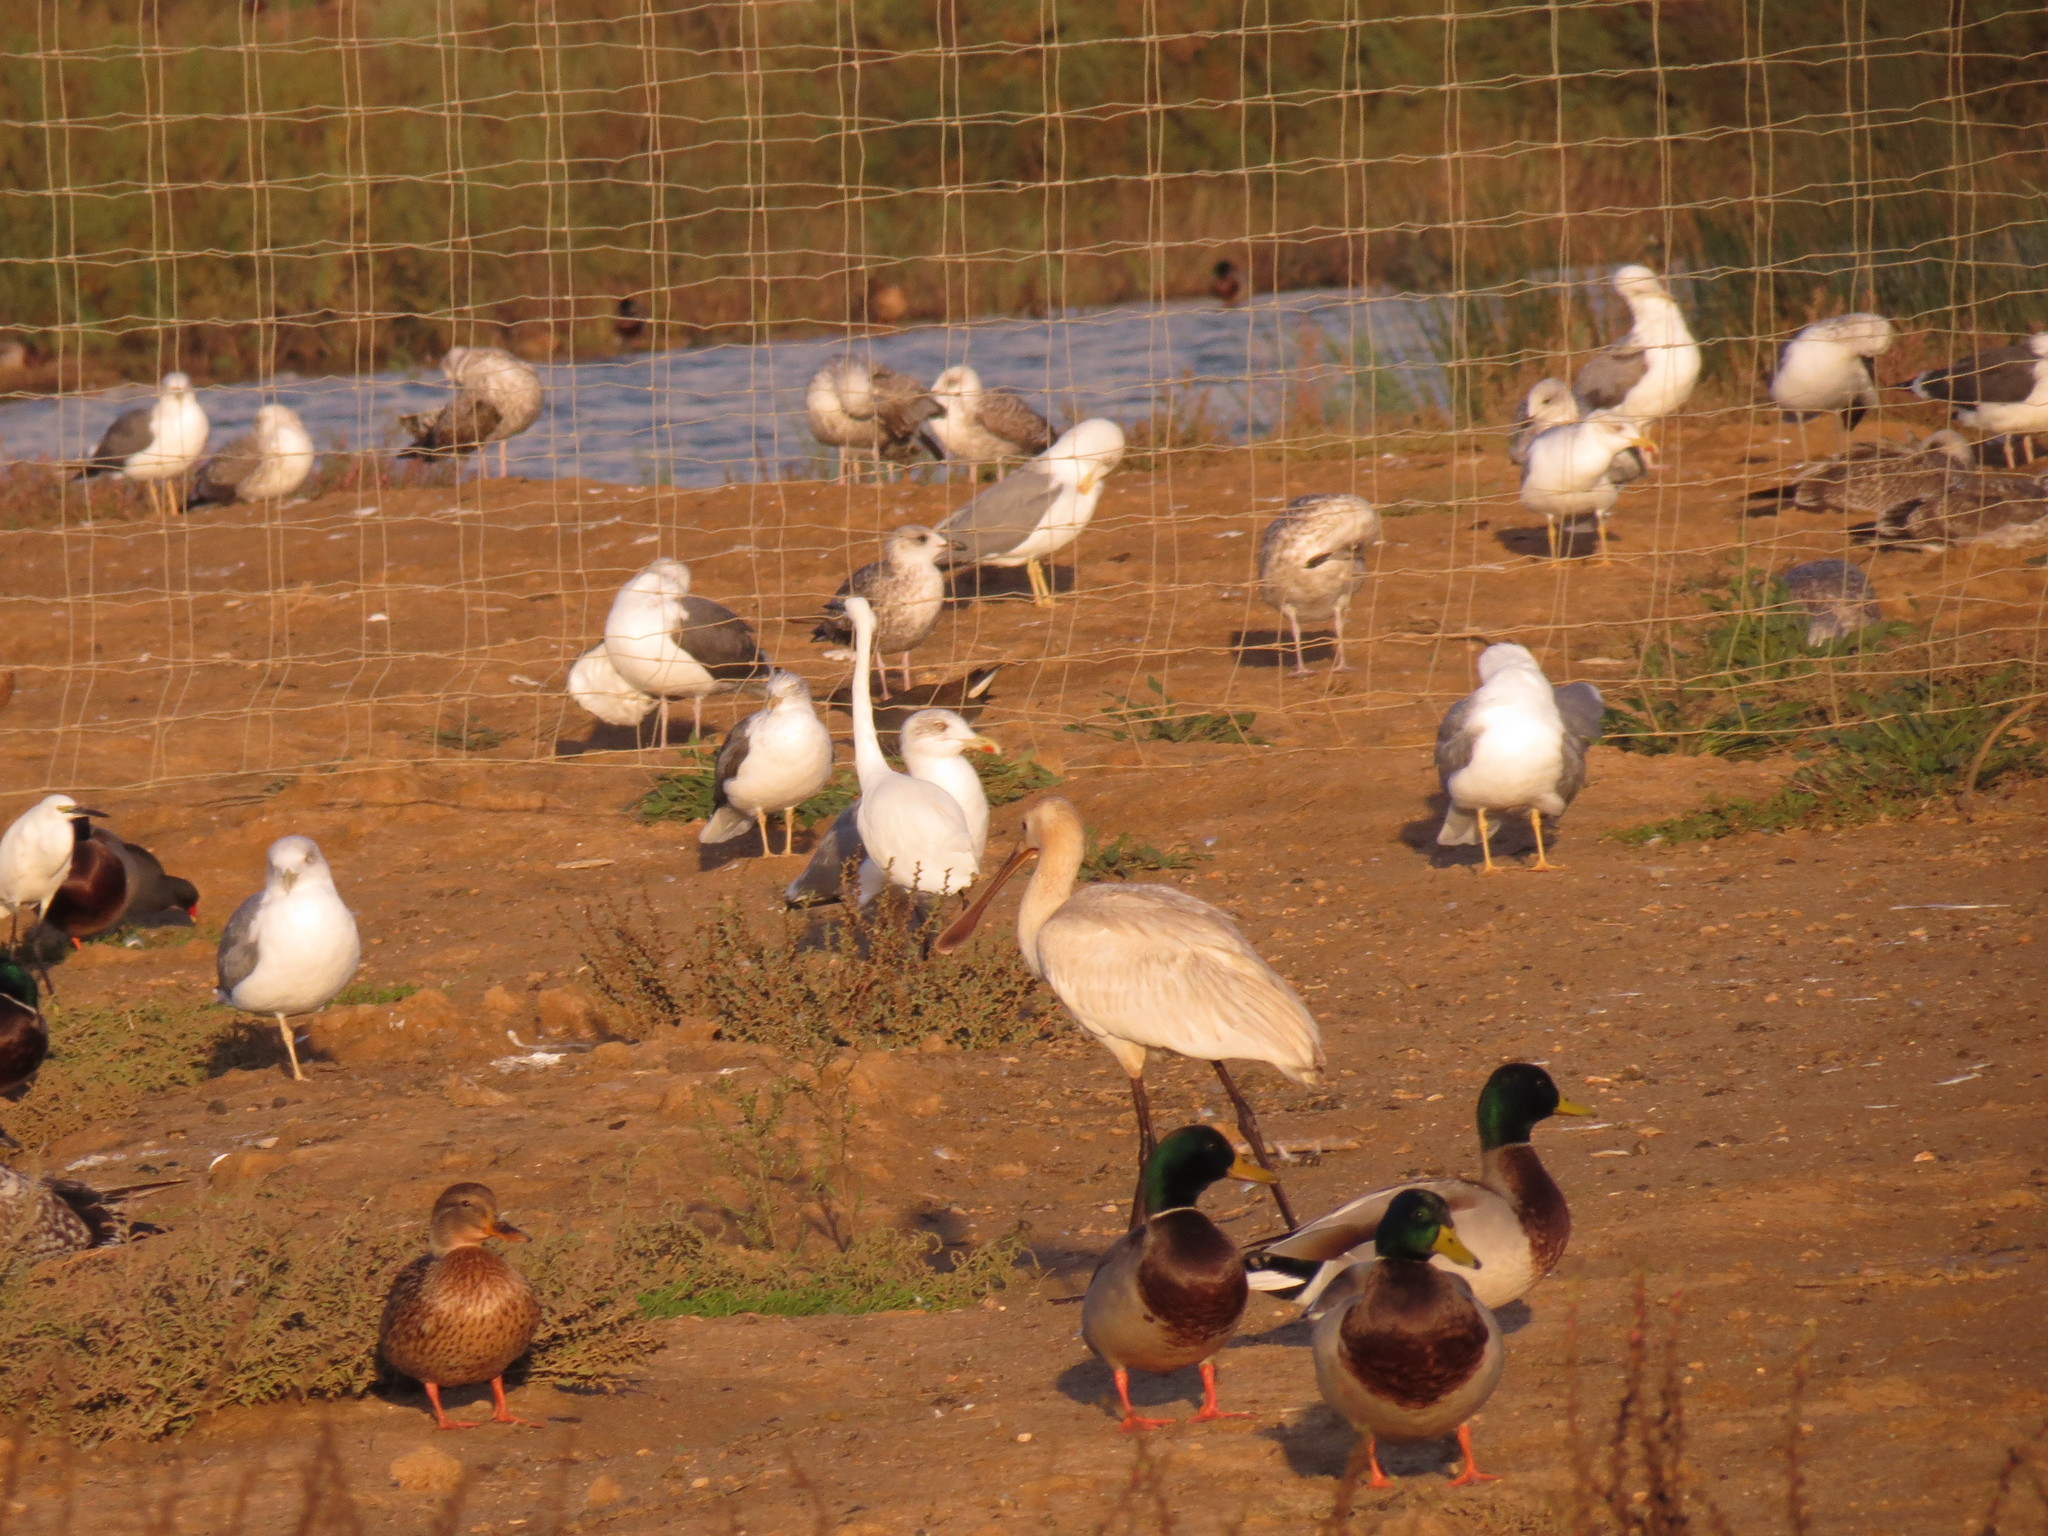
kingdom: Animalia
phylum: Chordata
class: Aves
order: Charadriiformes
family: Laridae
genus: Larus
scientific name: Larus fuscus
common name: Lesser black-backed gull
